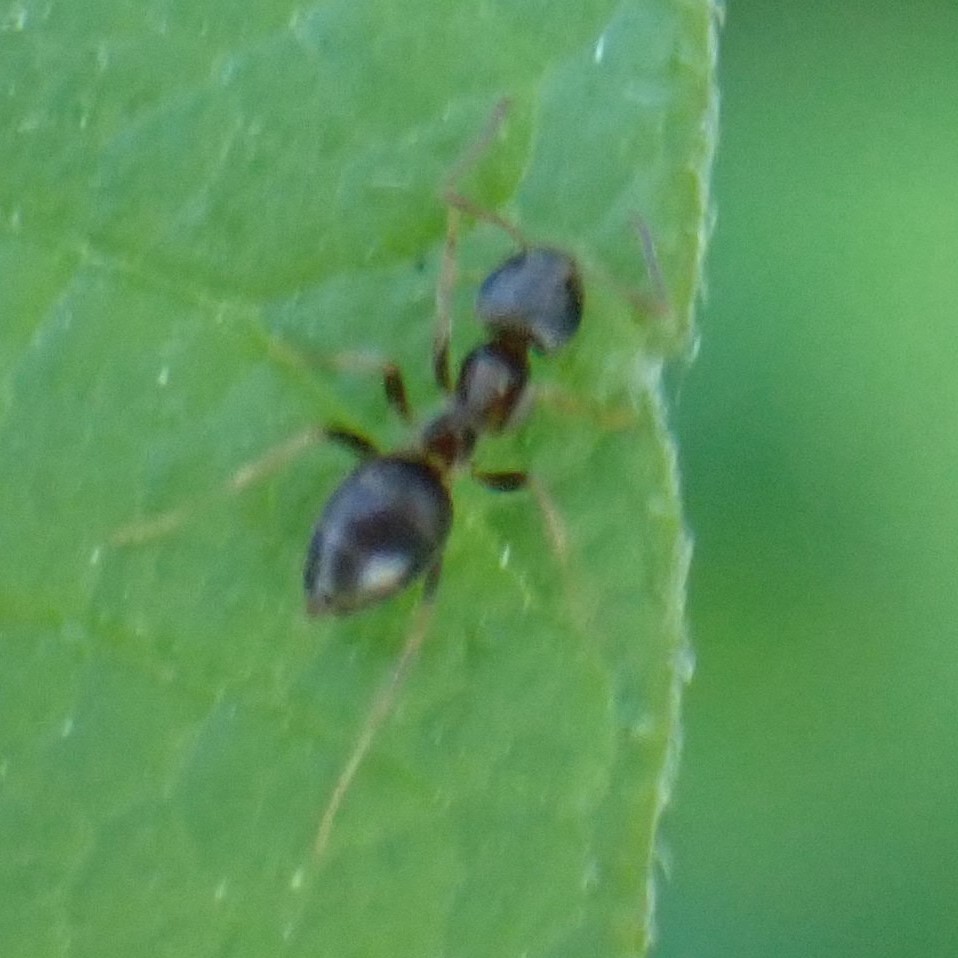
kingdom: Animalia
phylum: Arthropoda
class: Insecta
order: Hymenoptera
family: Formicidae
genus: Lasius
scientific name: Lasius
